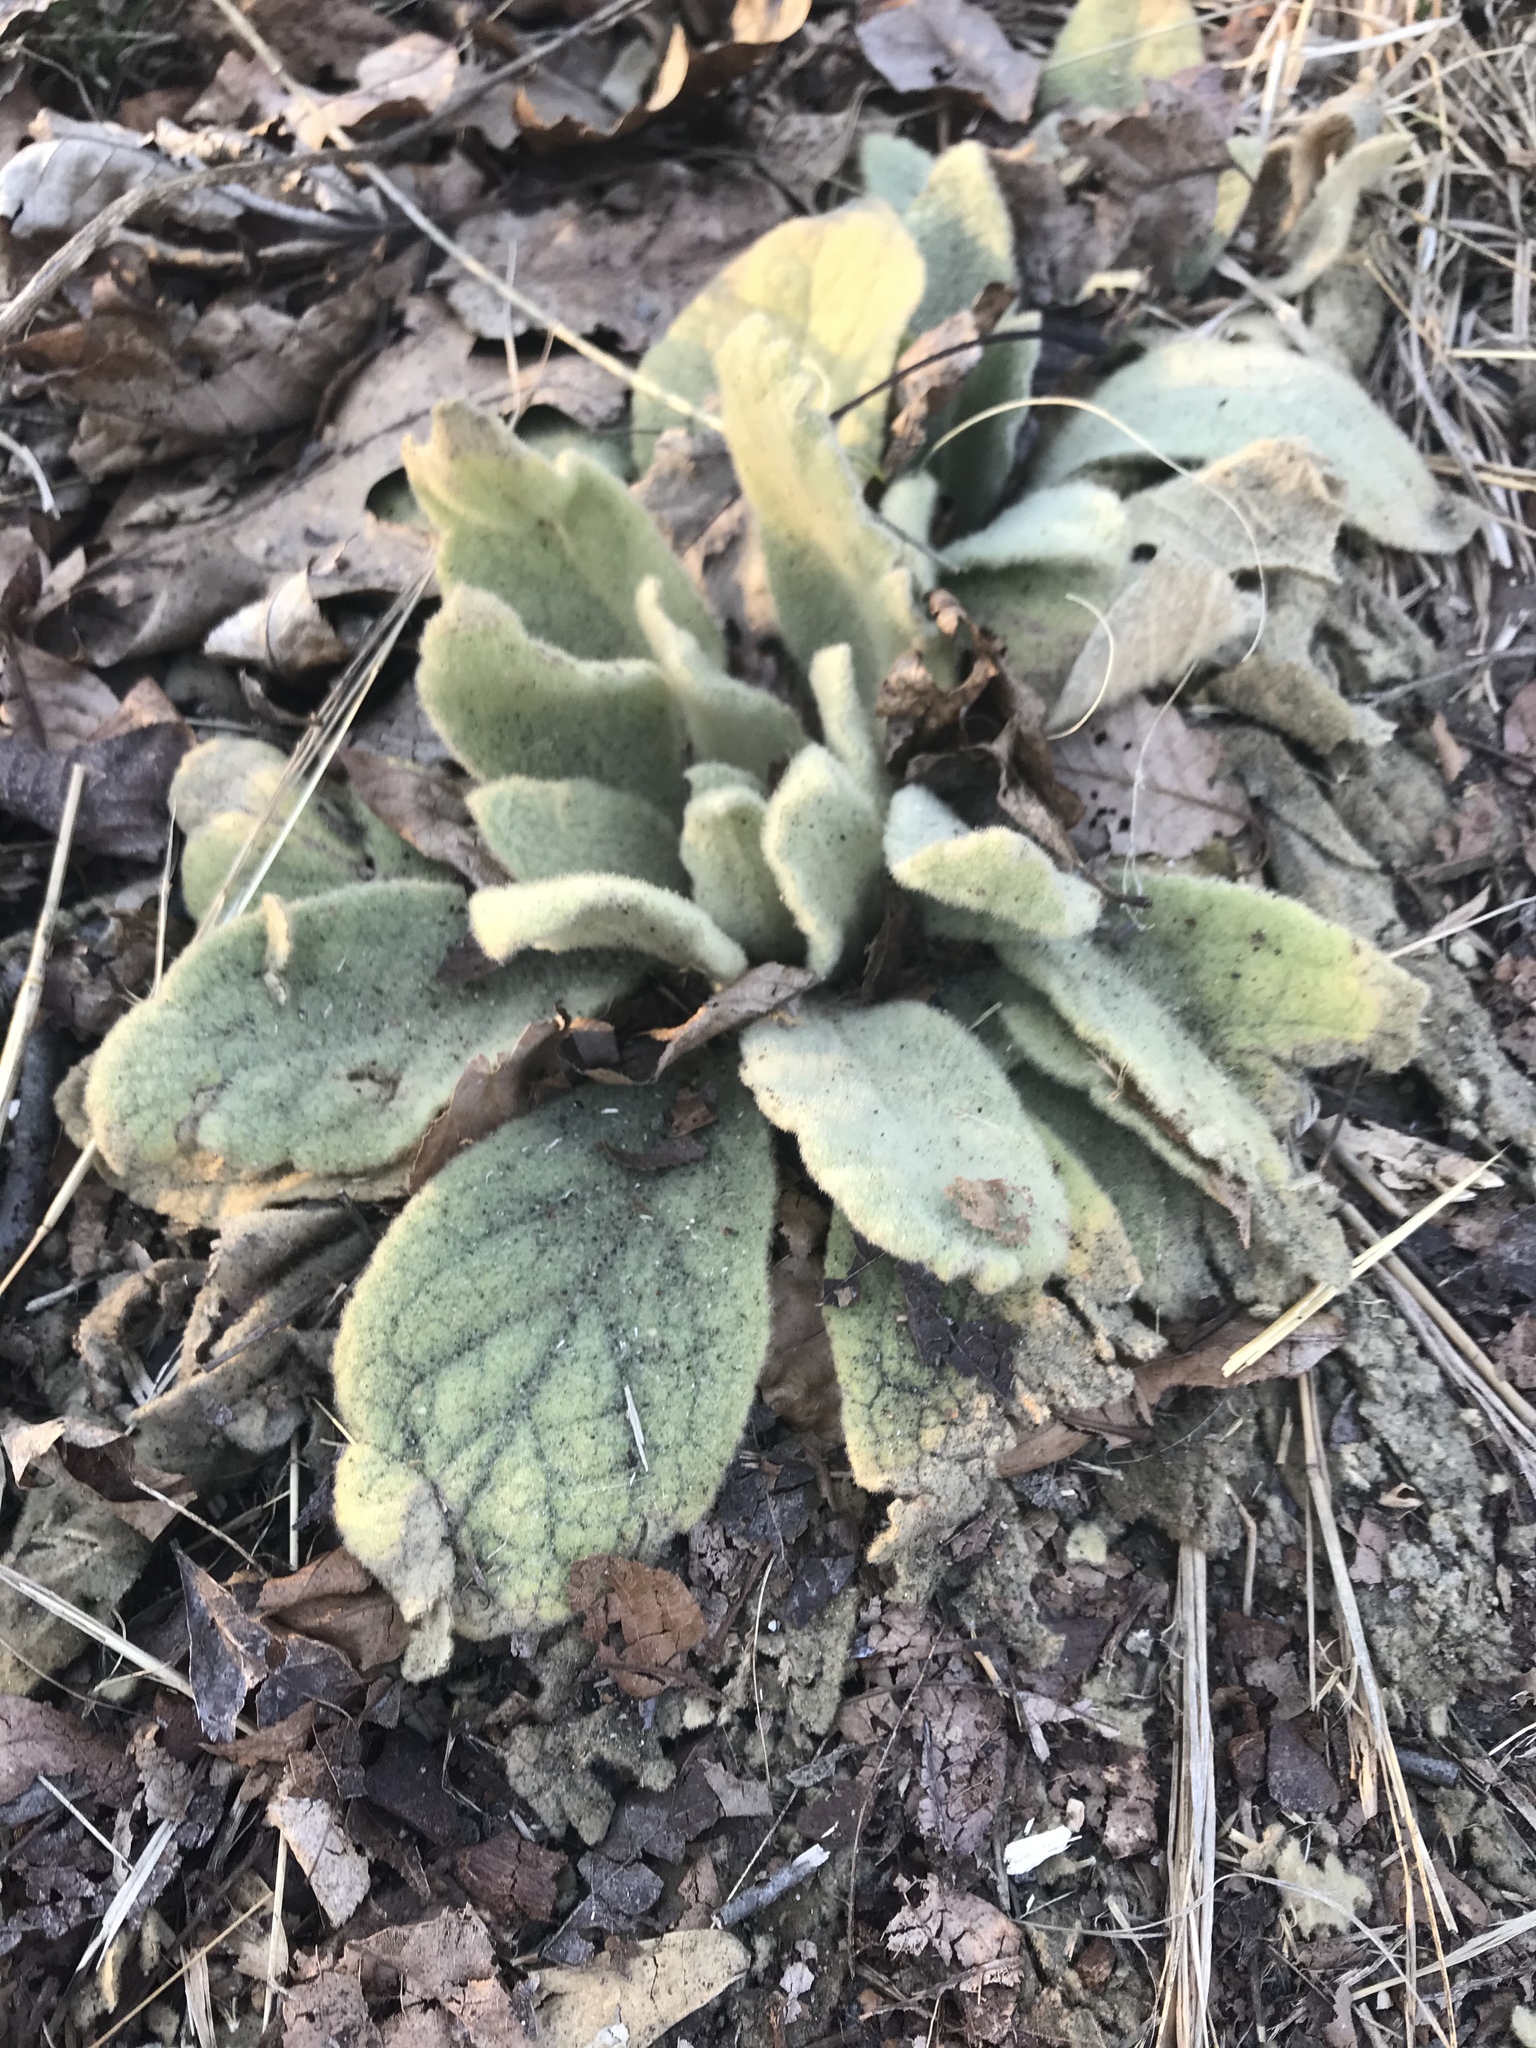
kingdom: Plantae
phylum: Tracheophyta
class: Magnoliopsida
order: Lamiales
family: Scrophulariaceae
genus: Verbascum
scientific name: Verbascum thapsus
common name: Common mullein
